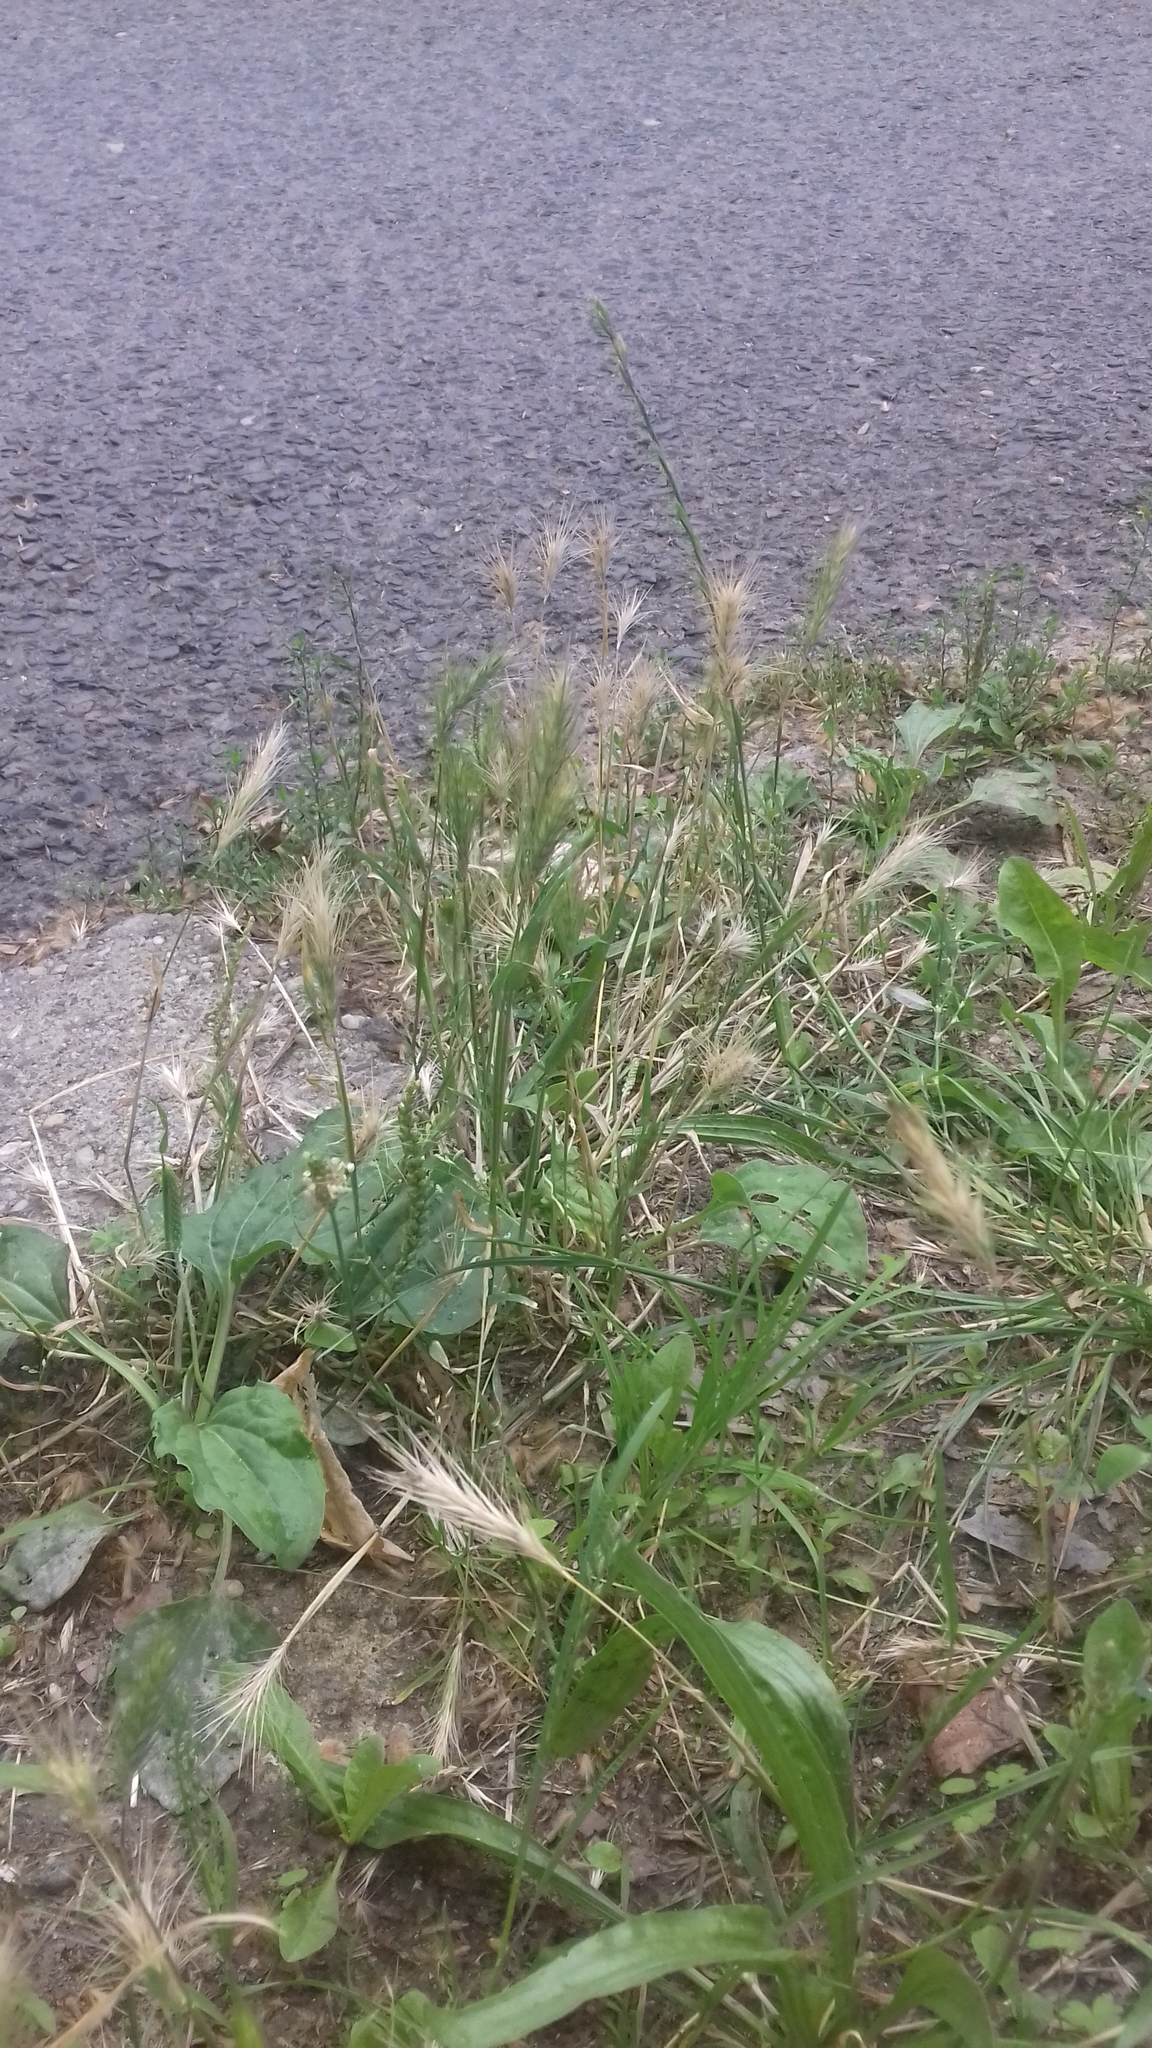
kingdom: Plantae
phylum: Tracheophyta
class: Liliopsida
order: Poales
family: Poaceae
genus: Hordeum
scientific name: Hordeum murinum
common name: Wall barley
